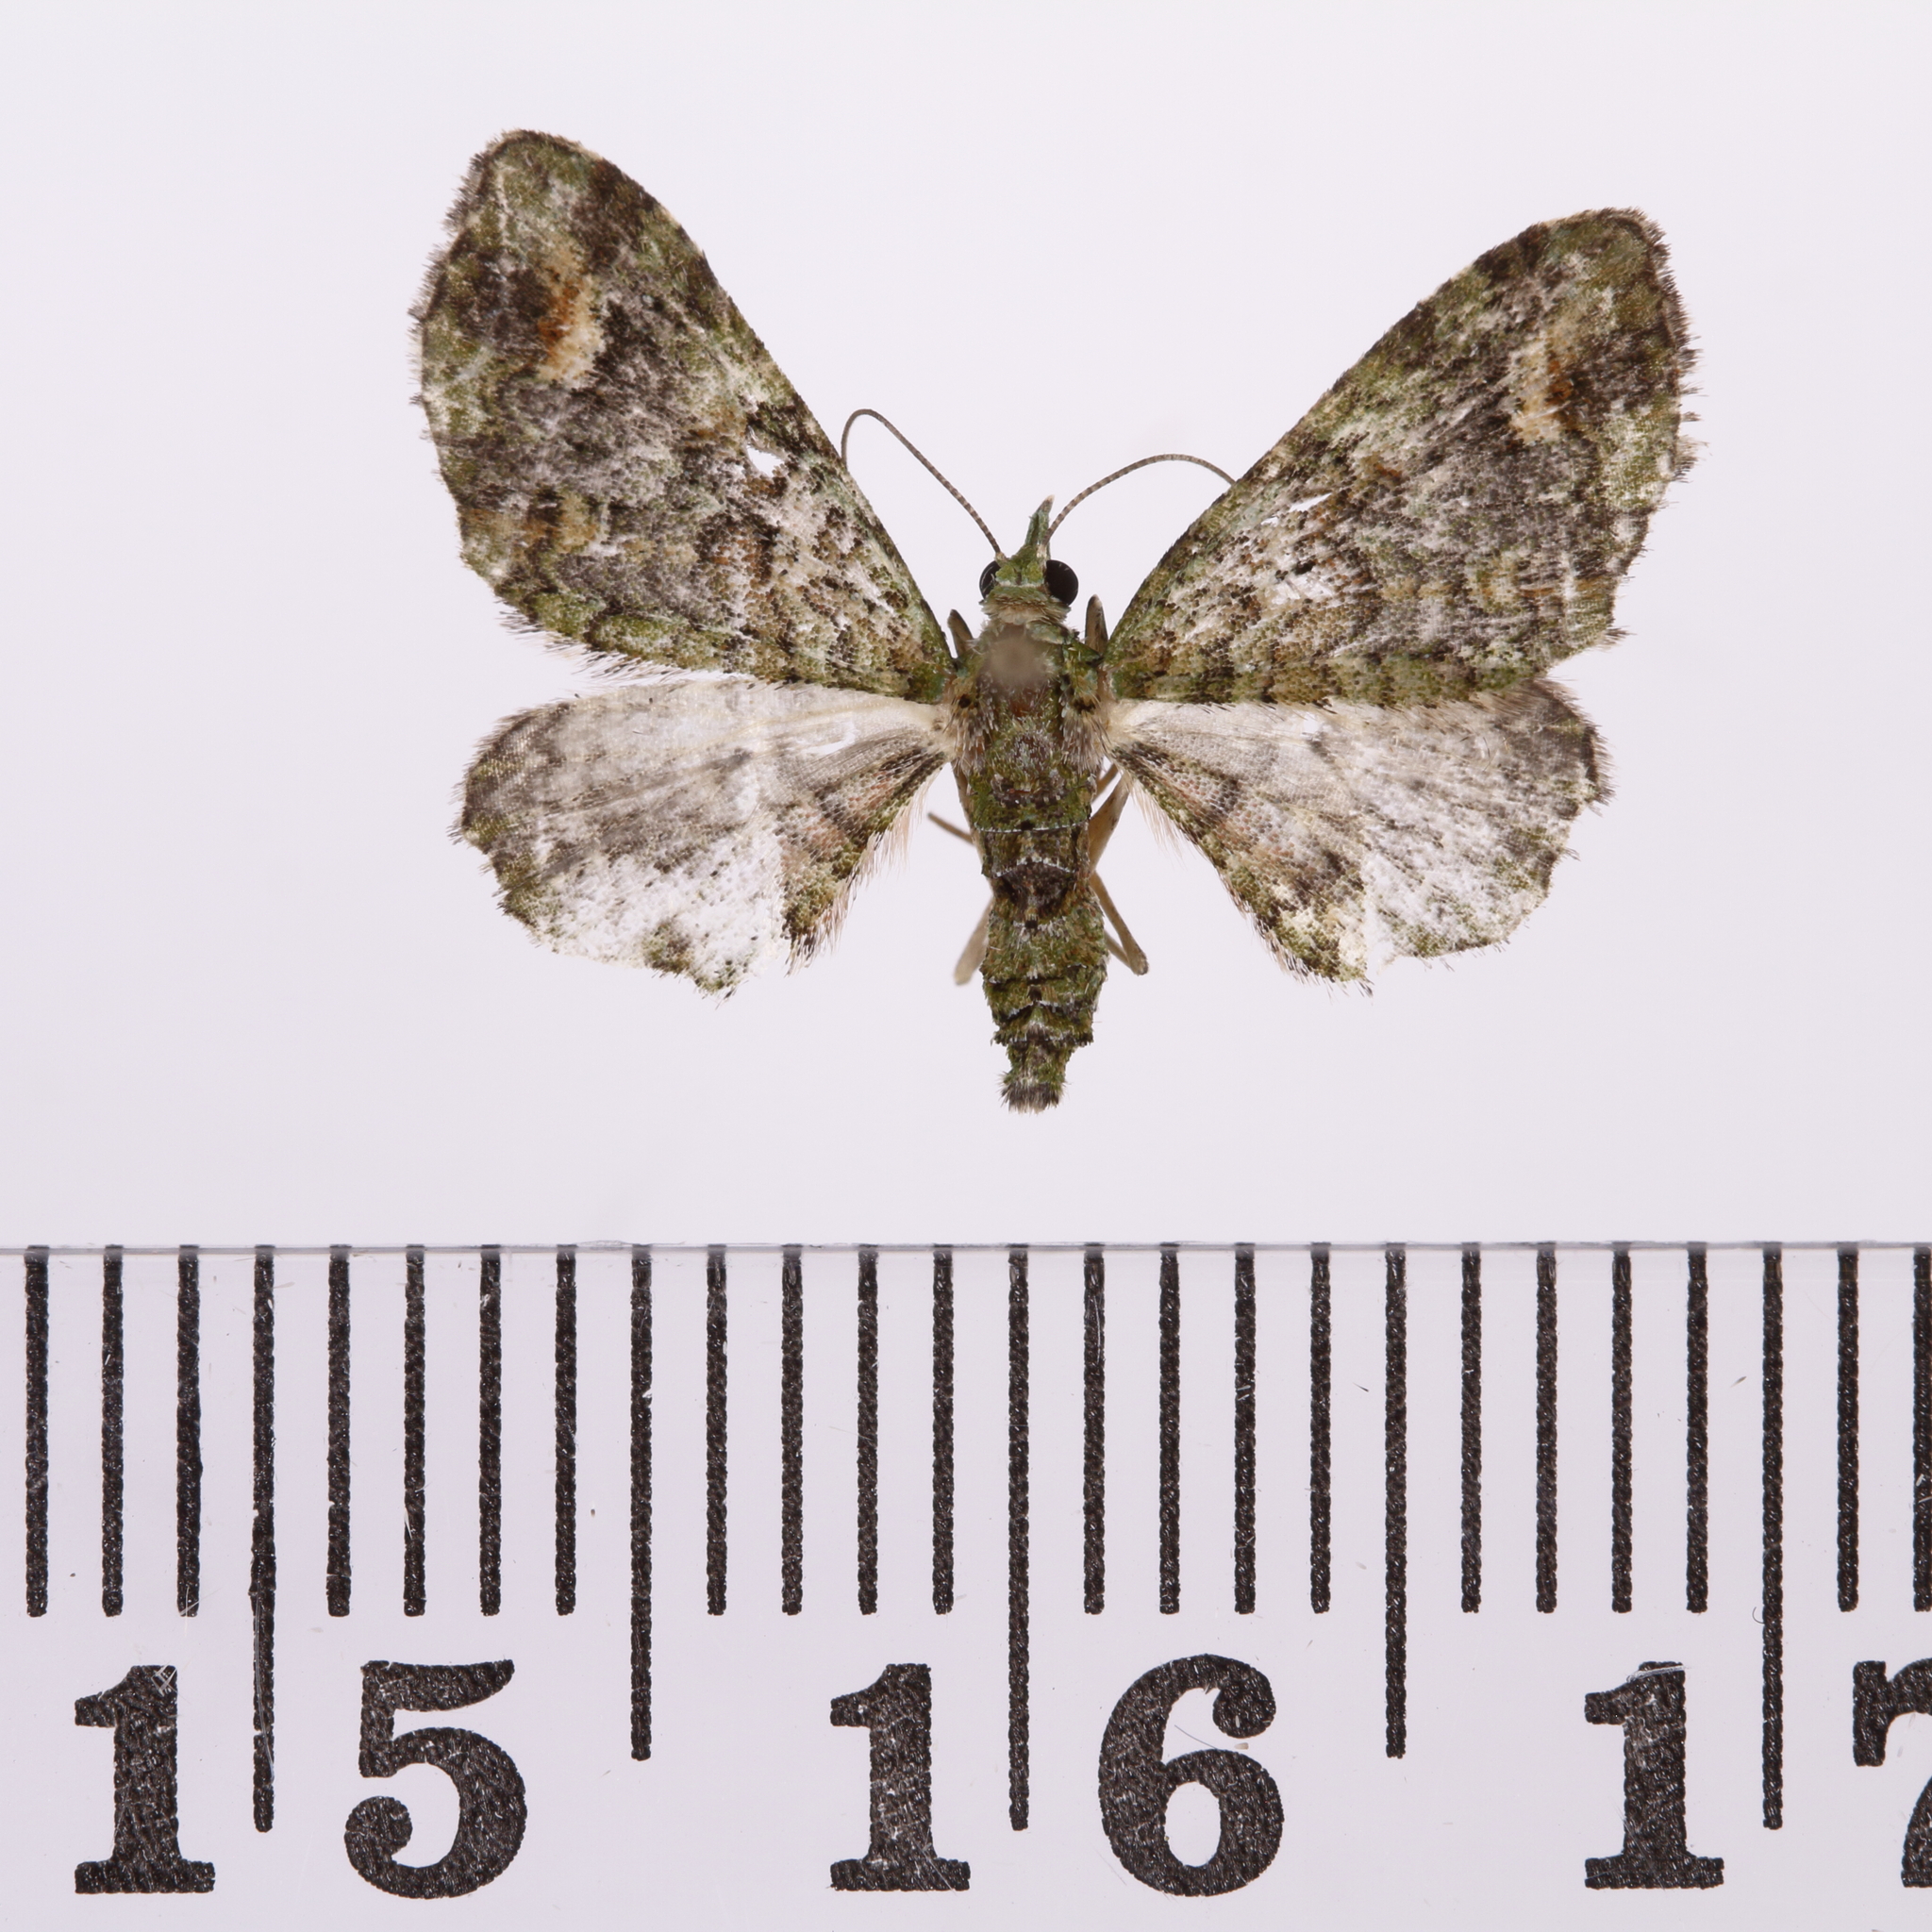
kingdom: Animalia
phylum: Arthropoda
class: Insecta
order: Lepidoptera
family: Geometridae
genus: Idaea
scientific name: Idaea mutanda
